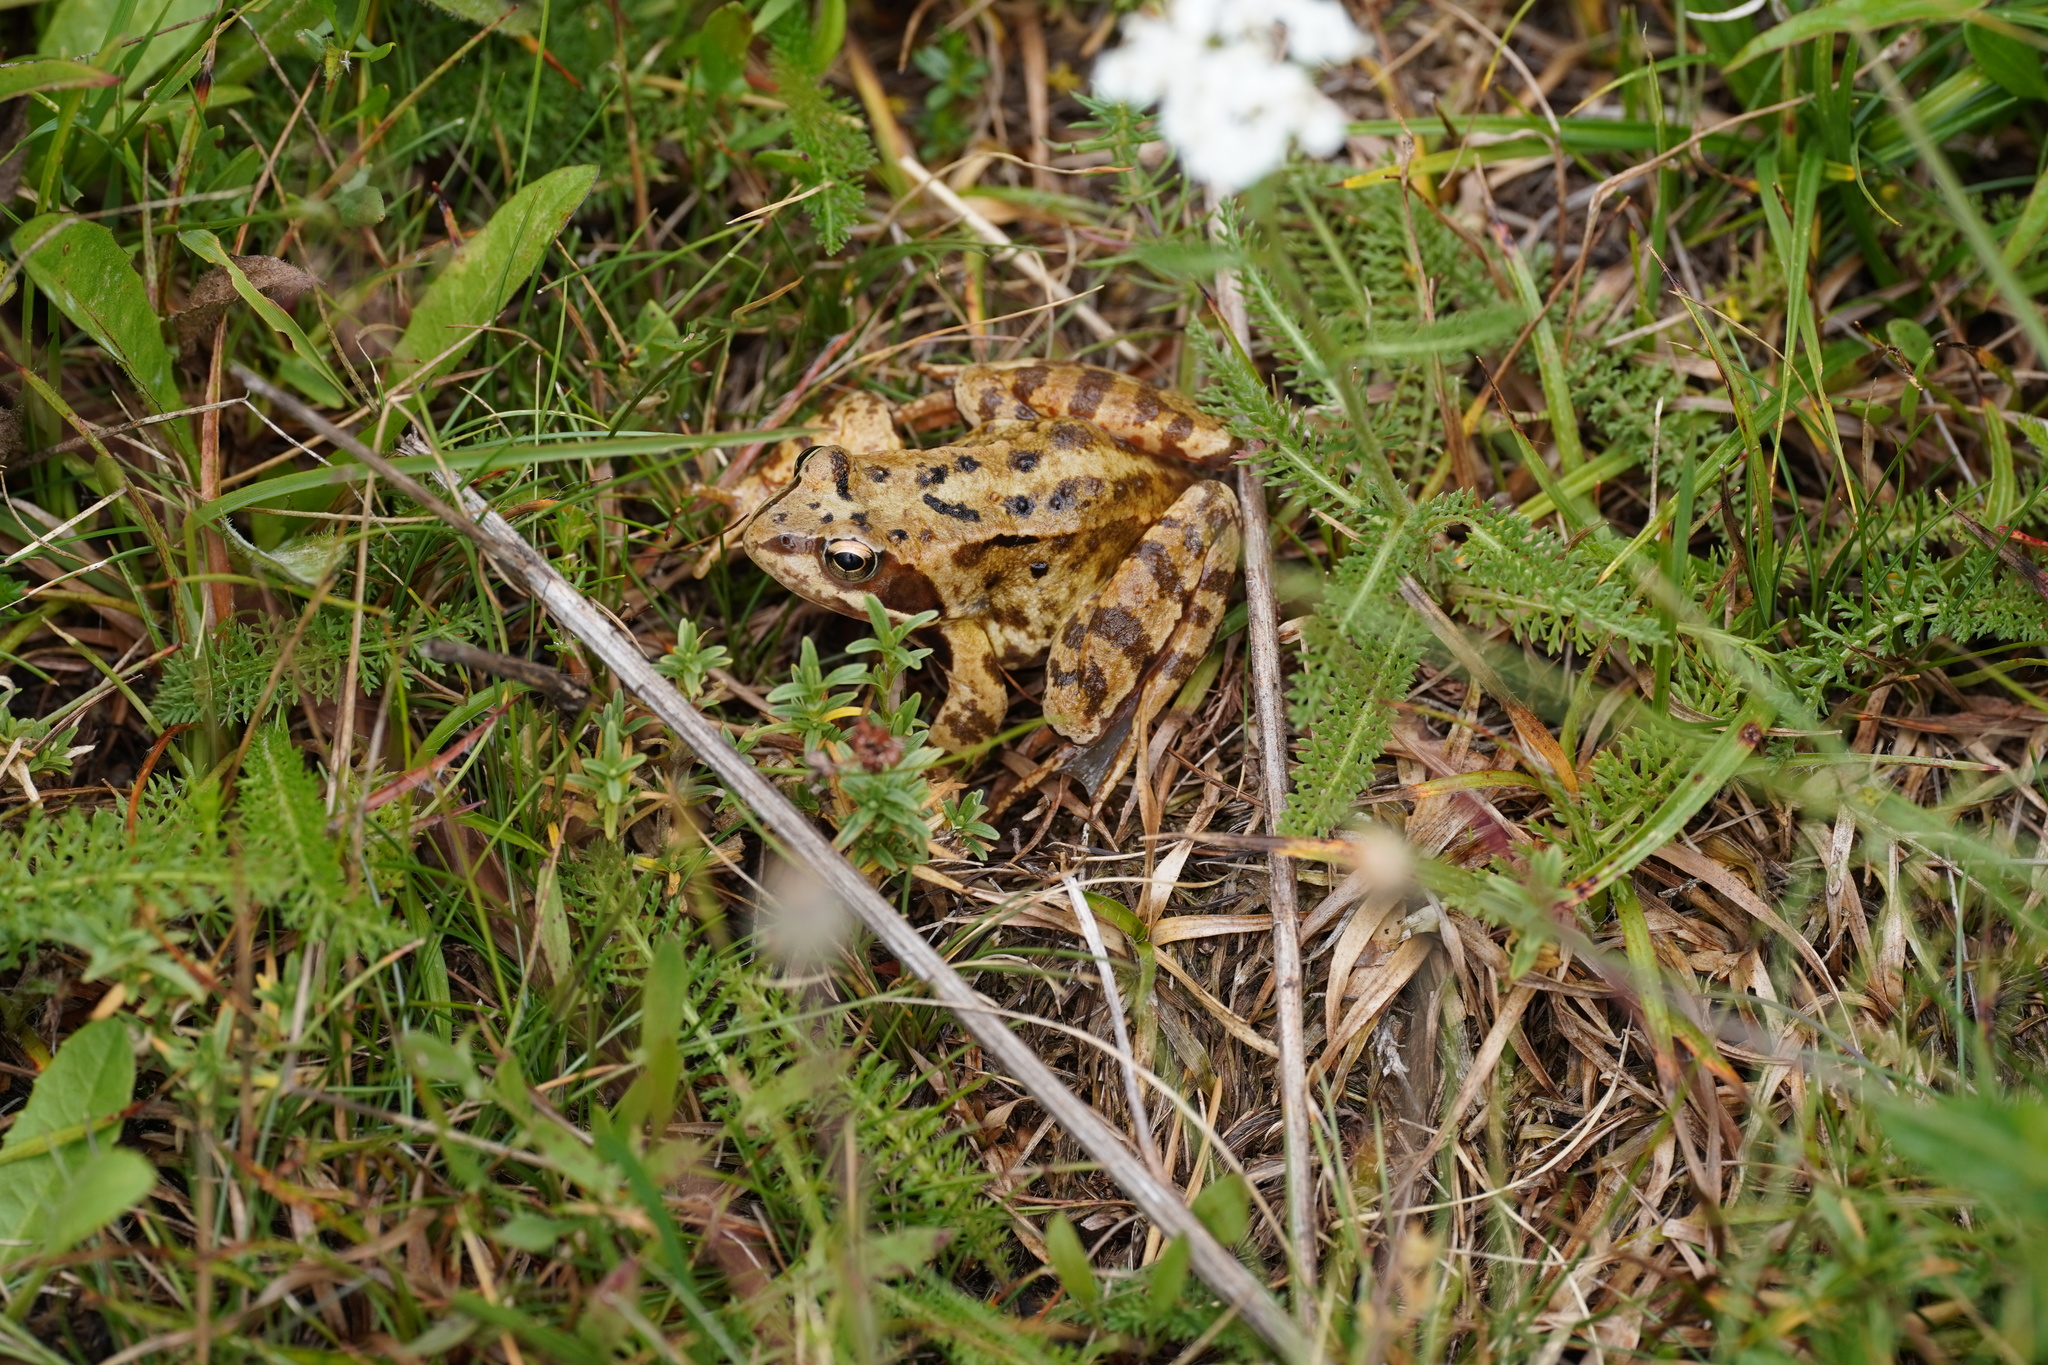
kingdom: Animalia
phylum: Chordata
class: Amphibia
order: Anura
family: Ranidae
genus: Rana
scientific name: Rana temporaria
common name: Common frog
